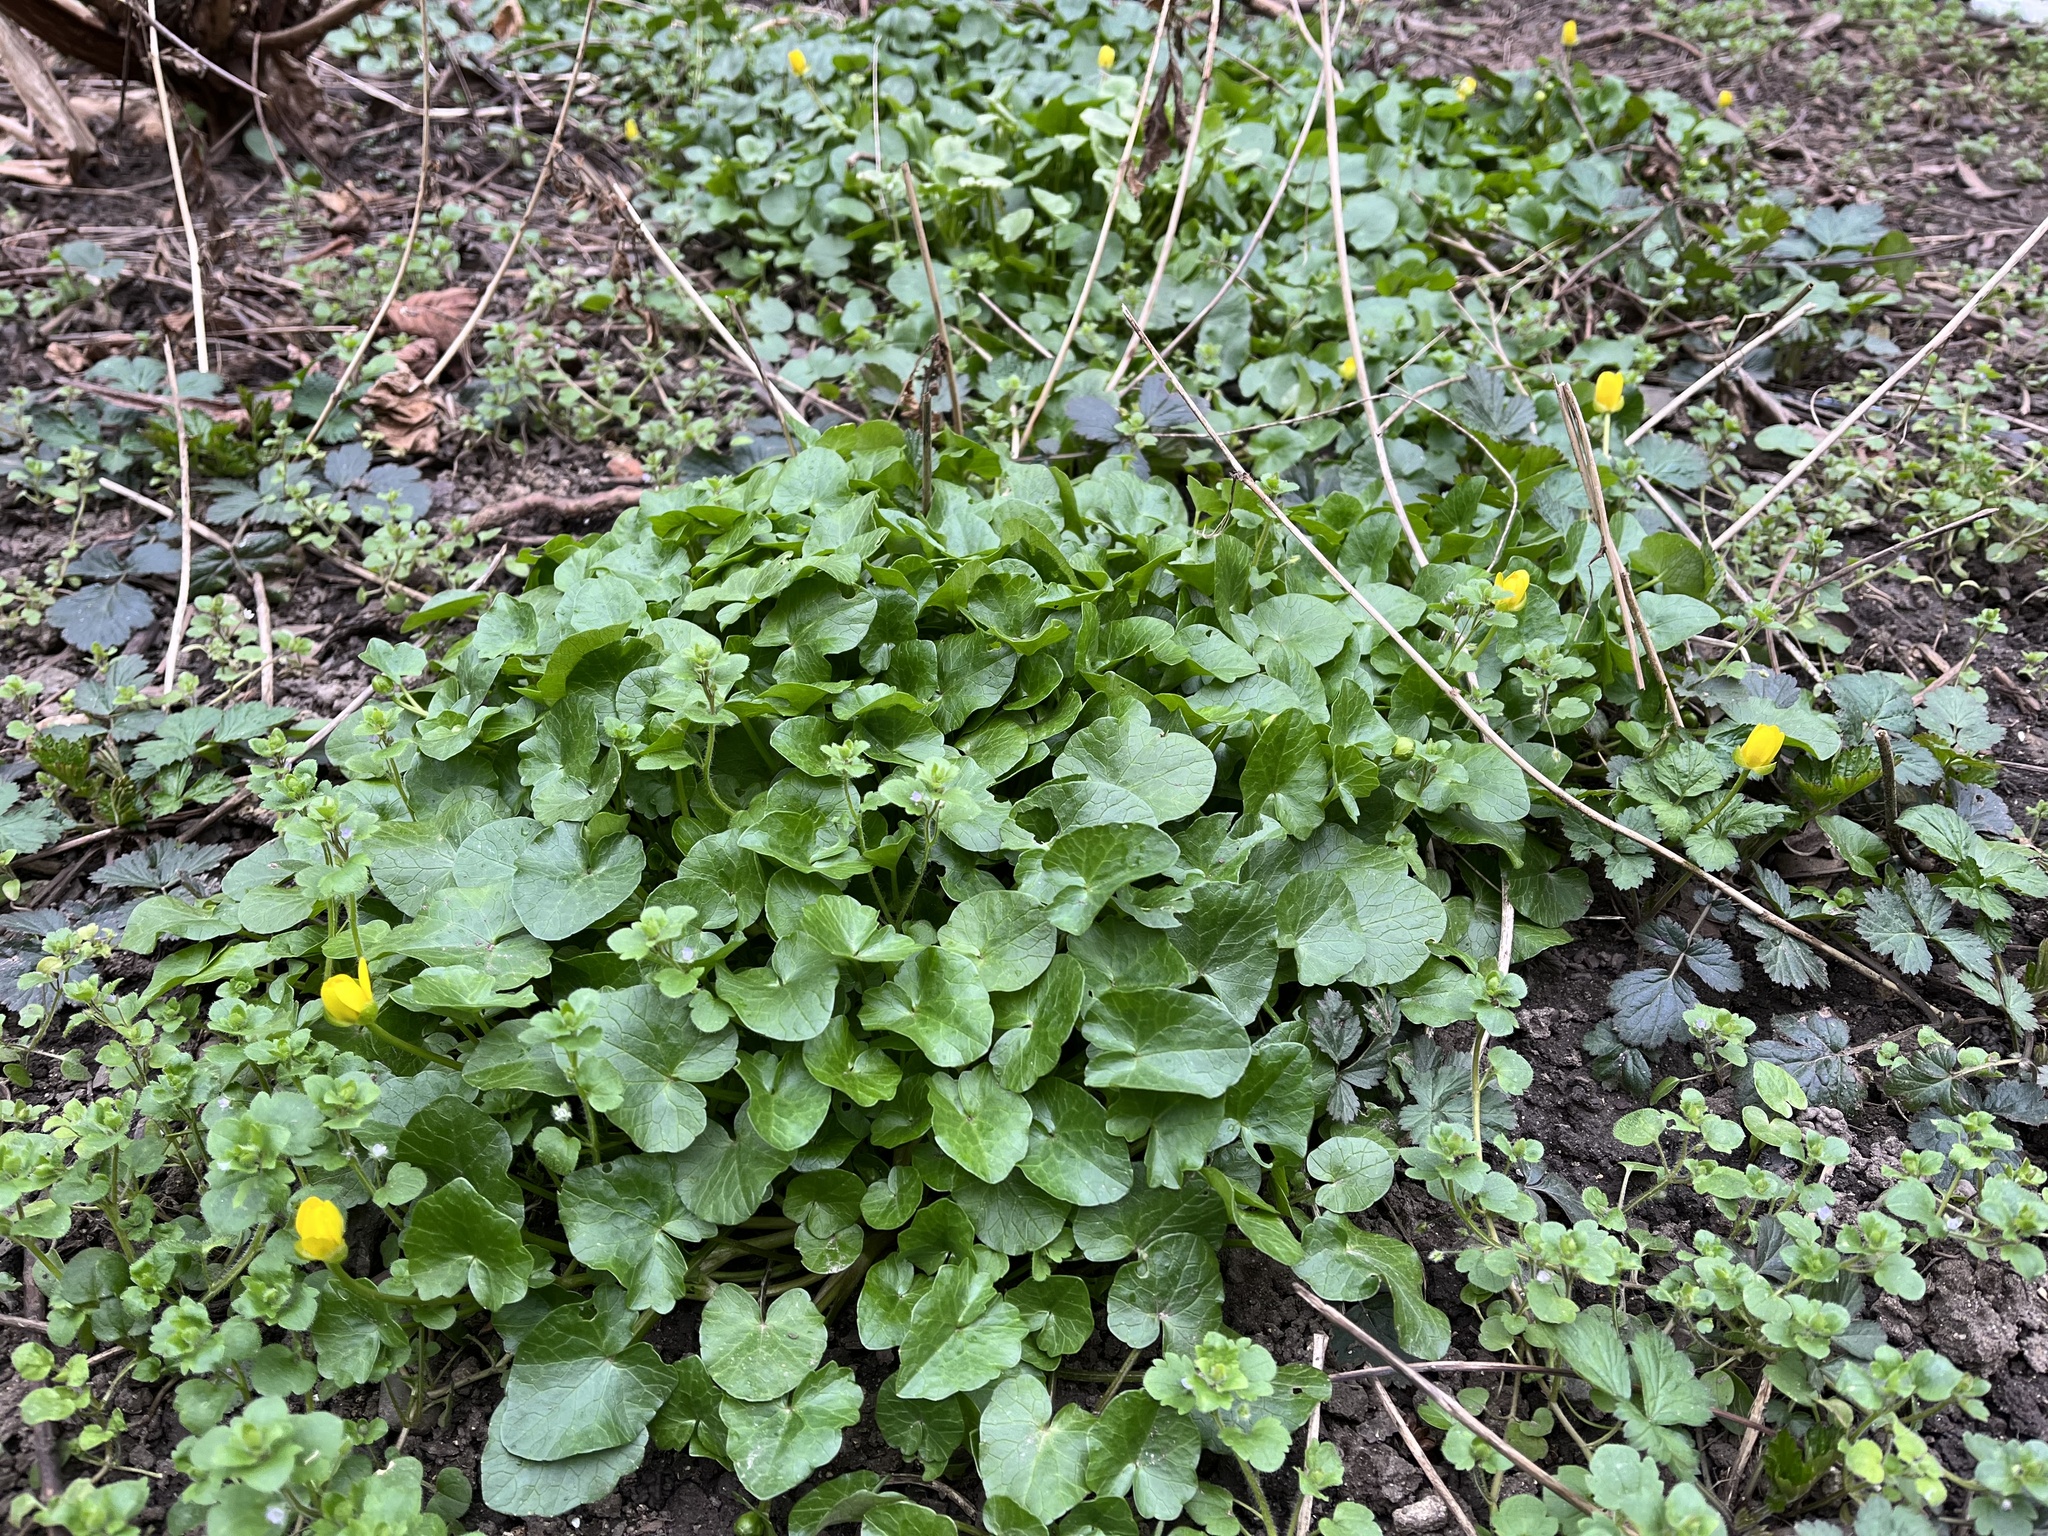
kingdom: Plantae
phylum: Tracheophyta
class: Magnoliopsida
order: Ranunculales
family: Ranunculaceae
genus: Ficaria
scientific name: Ficaria verna
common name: Lesser celandine
